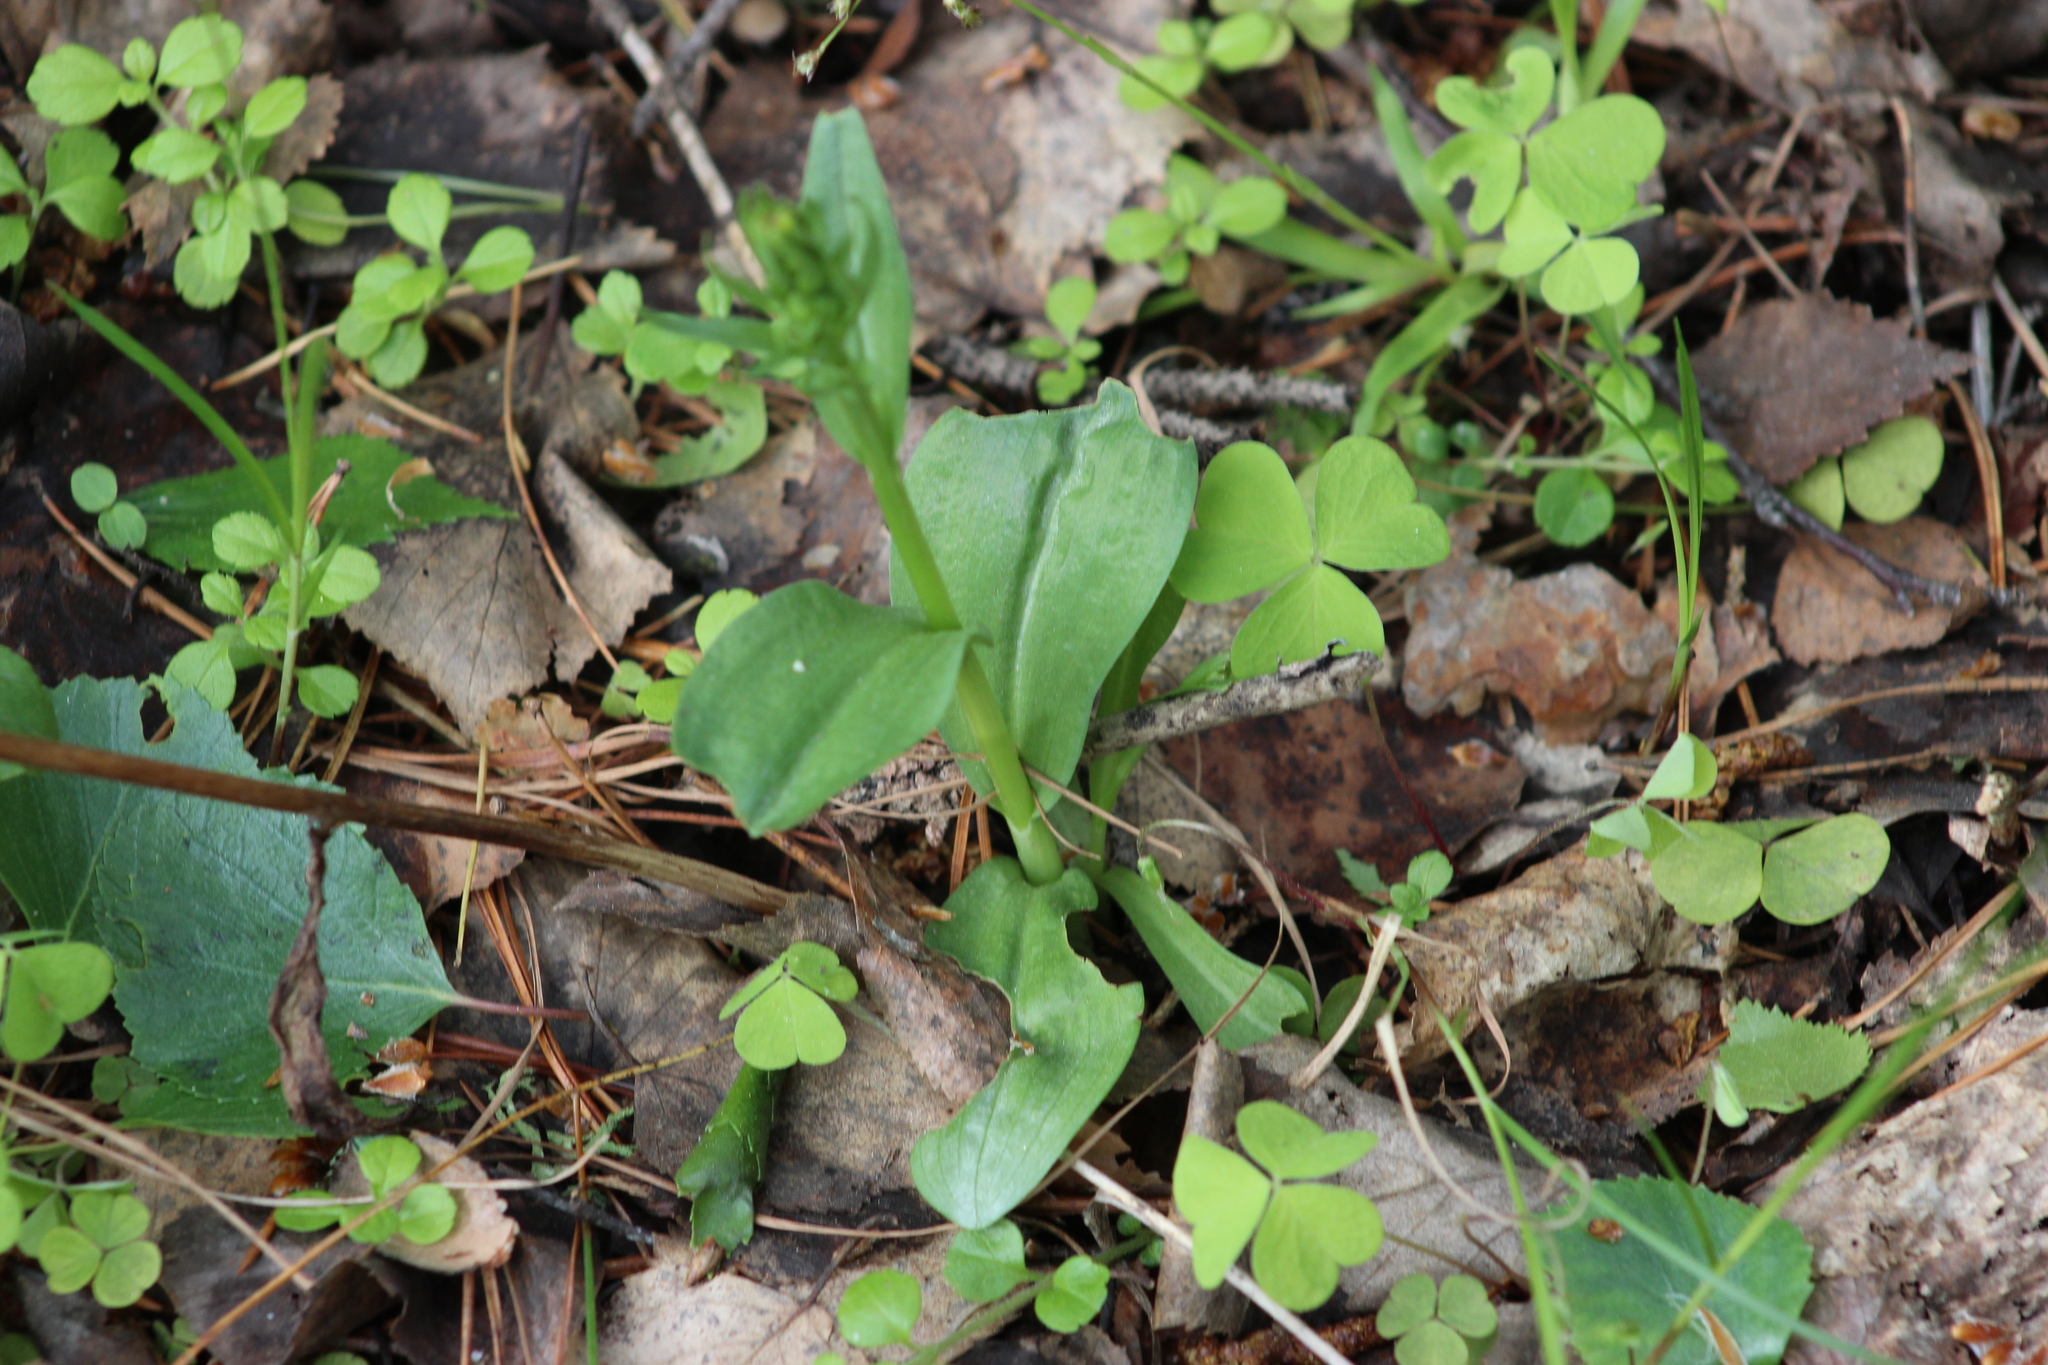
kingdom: Plantae
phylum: Tracheophyta
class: Liliopsida
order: Asparagales
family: Orchidaceae
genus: Dactylorhiza
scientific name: Dactylorhiza viridis
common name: Longbract frog orchid
